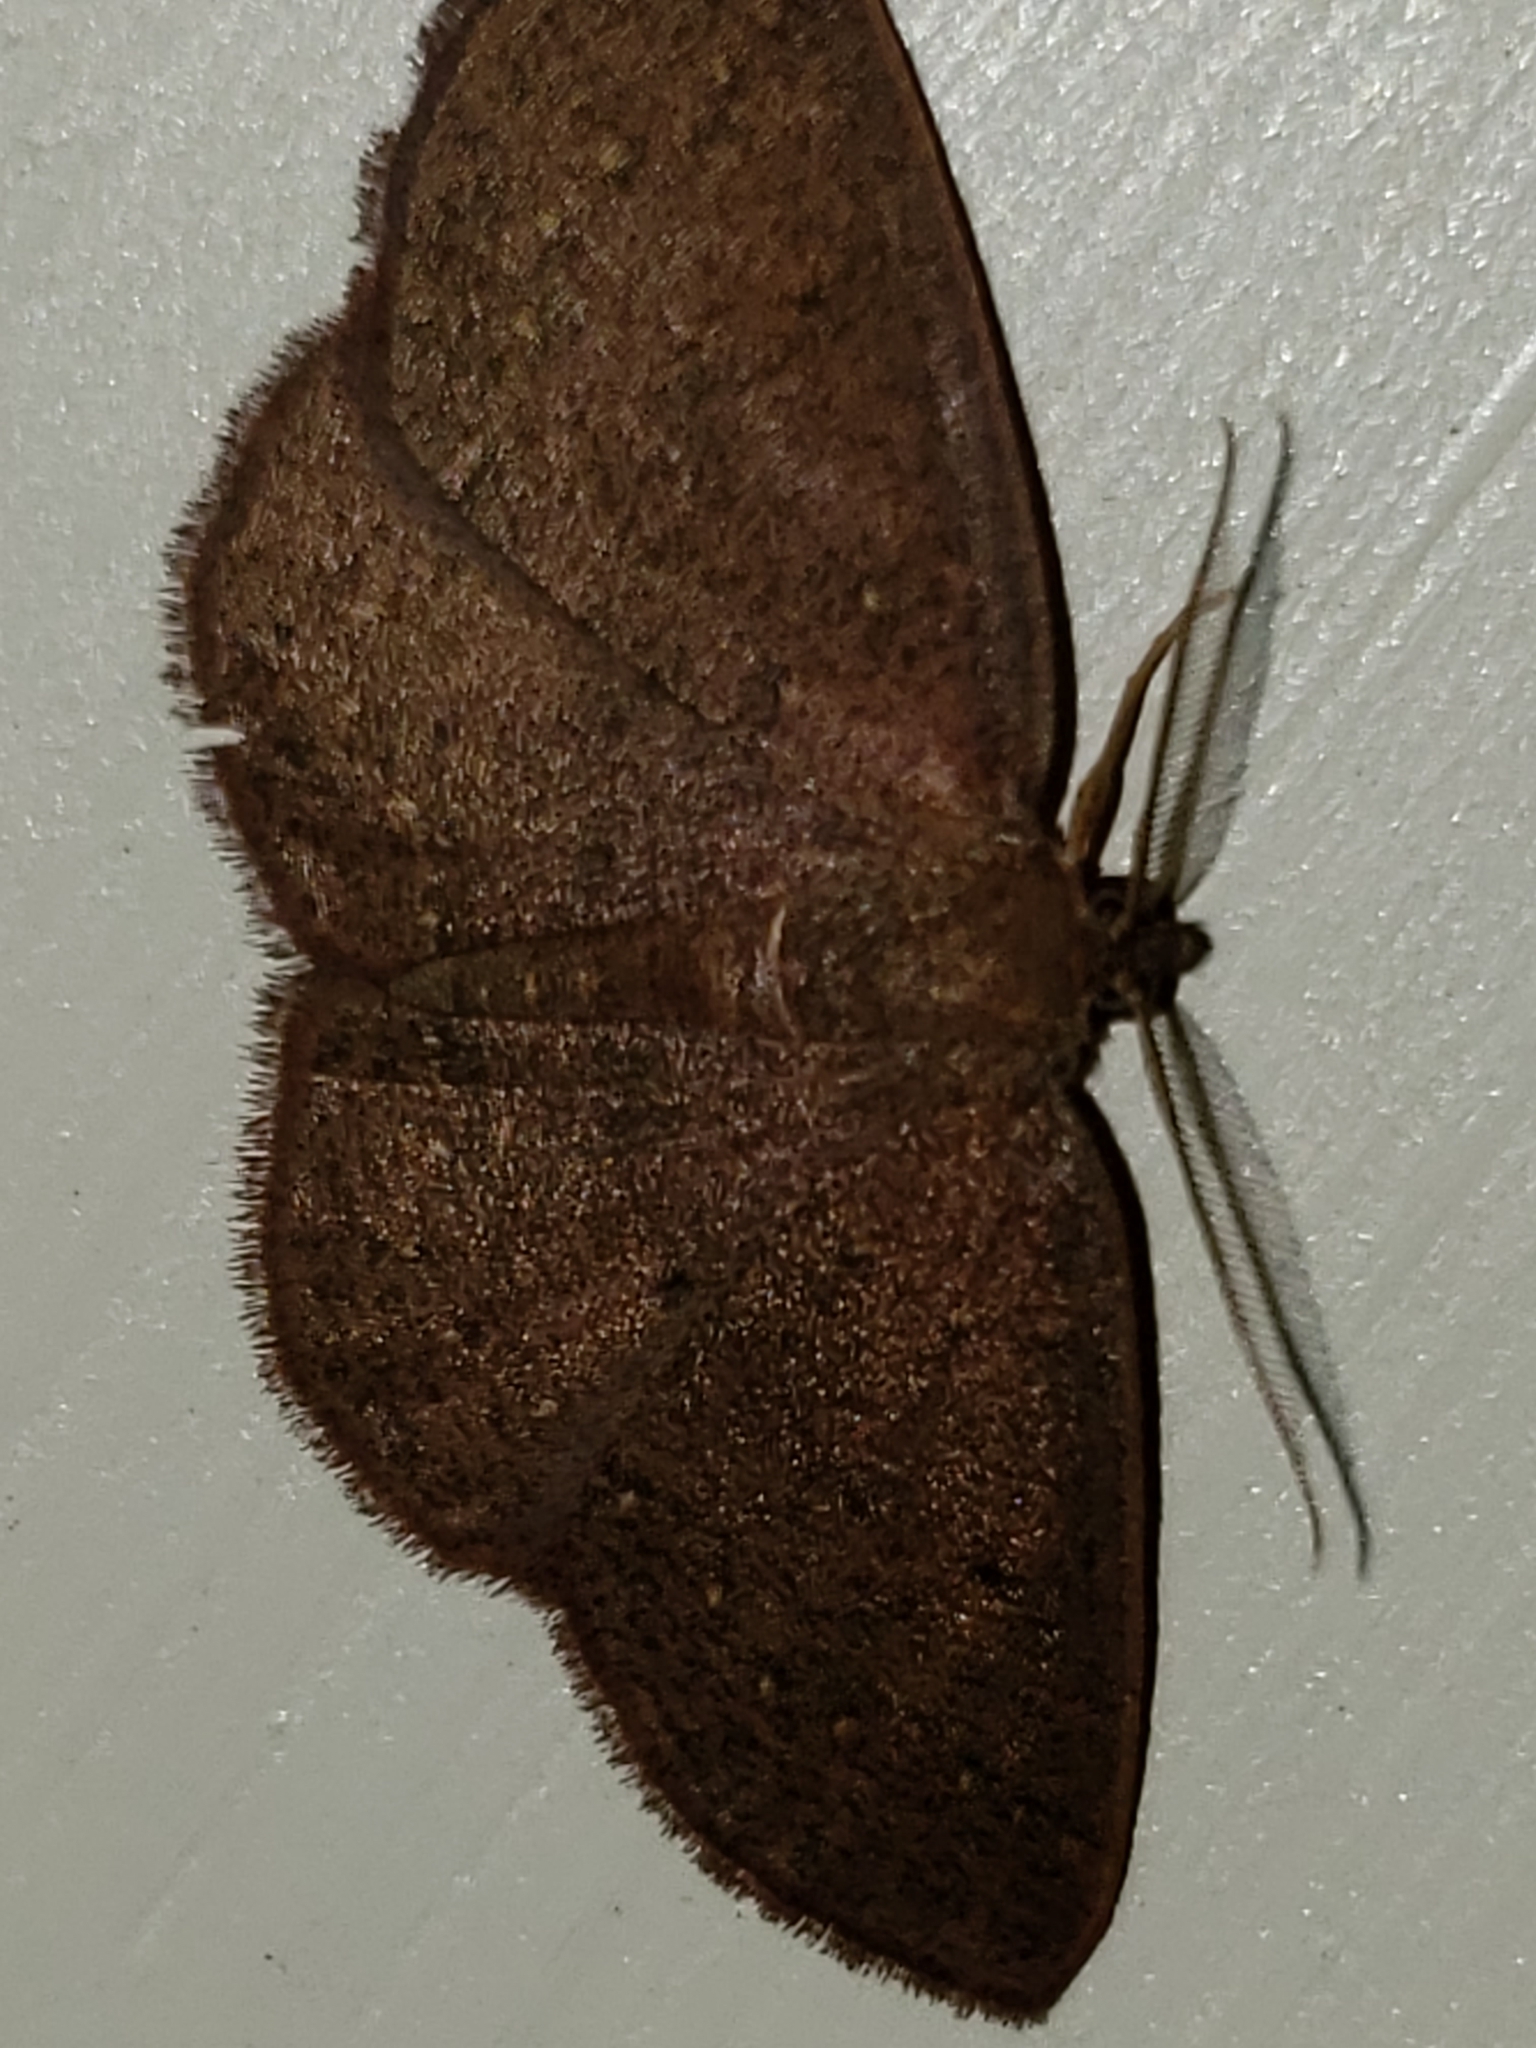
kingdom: Animalia
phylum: Arthropoda
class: Insecta
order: Lepidoptera
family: Geometridae
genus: Ilexia
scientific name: Ilexia intractata
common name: Black-dotted ruddy moth
